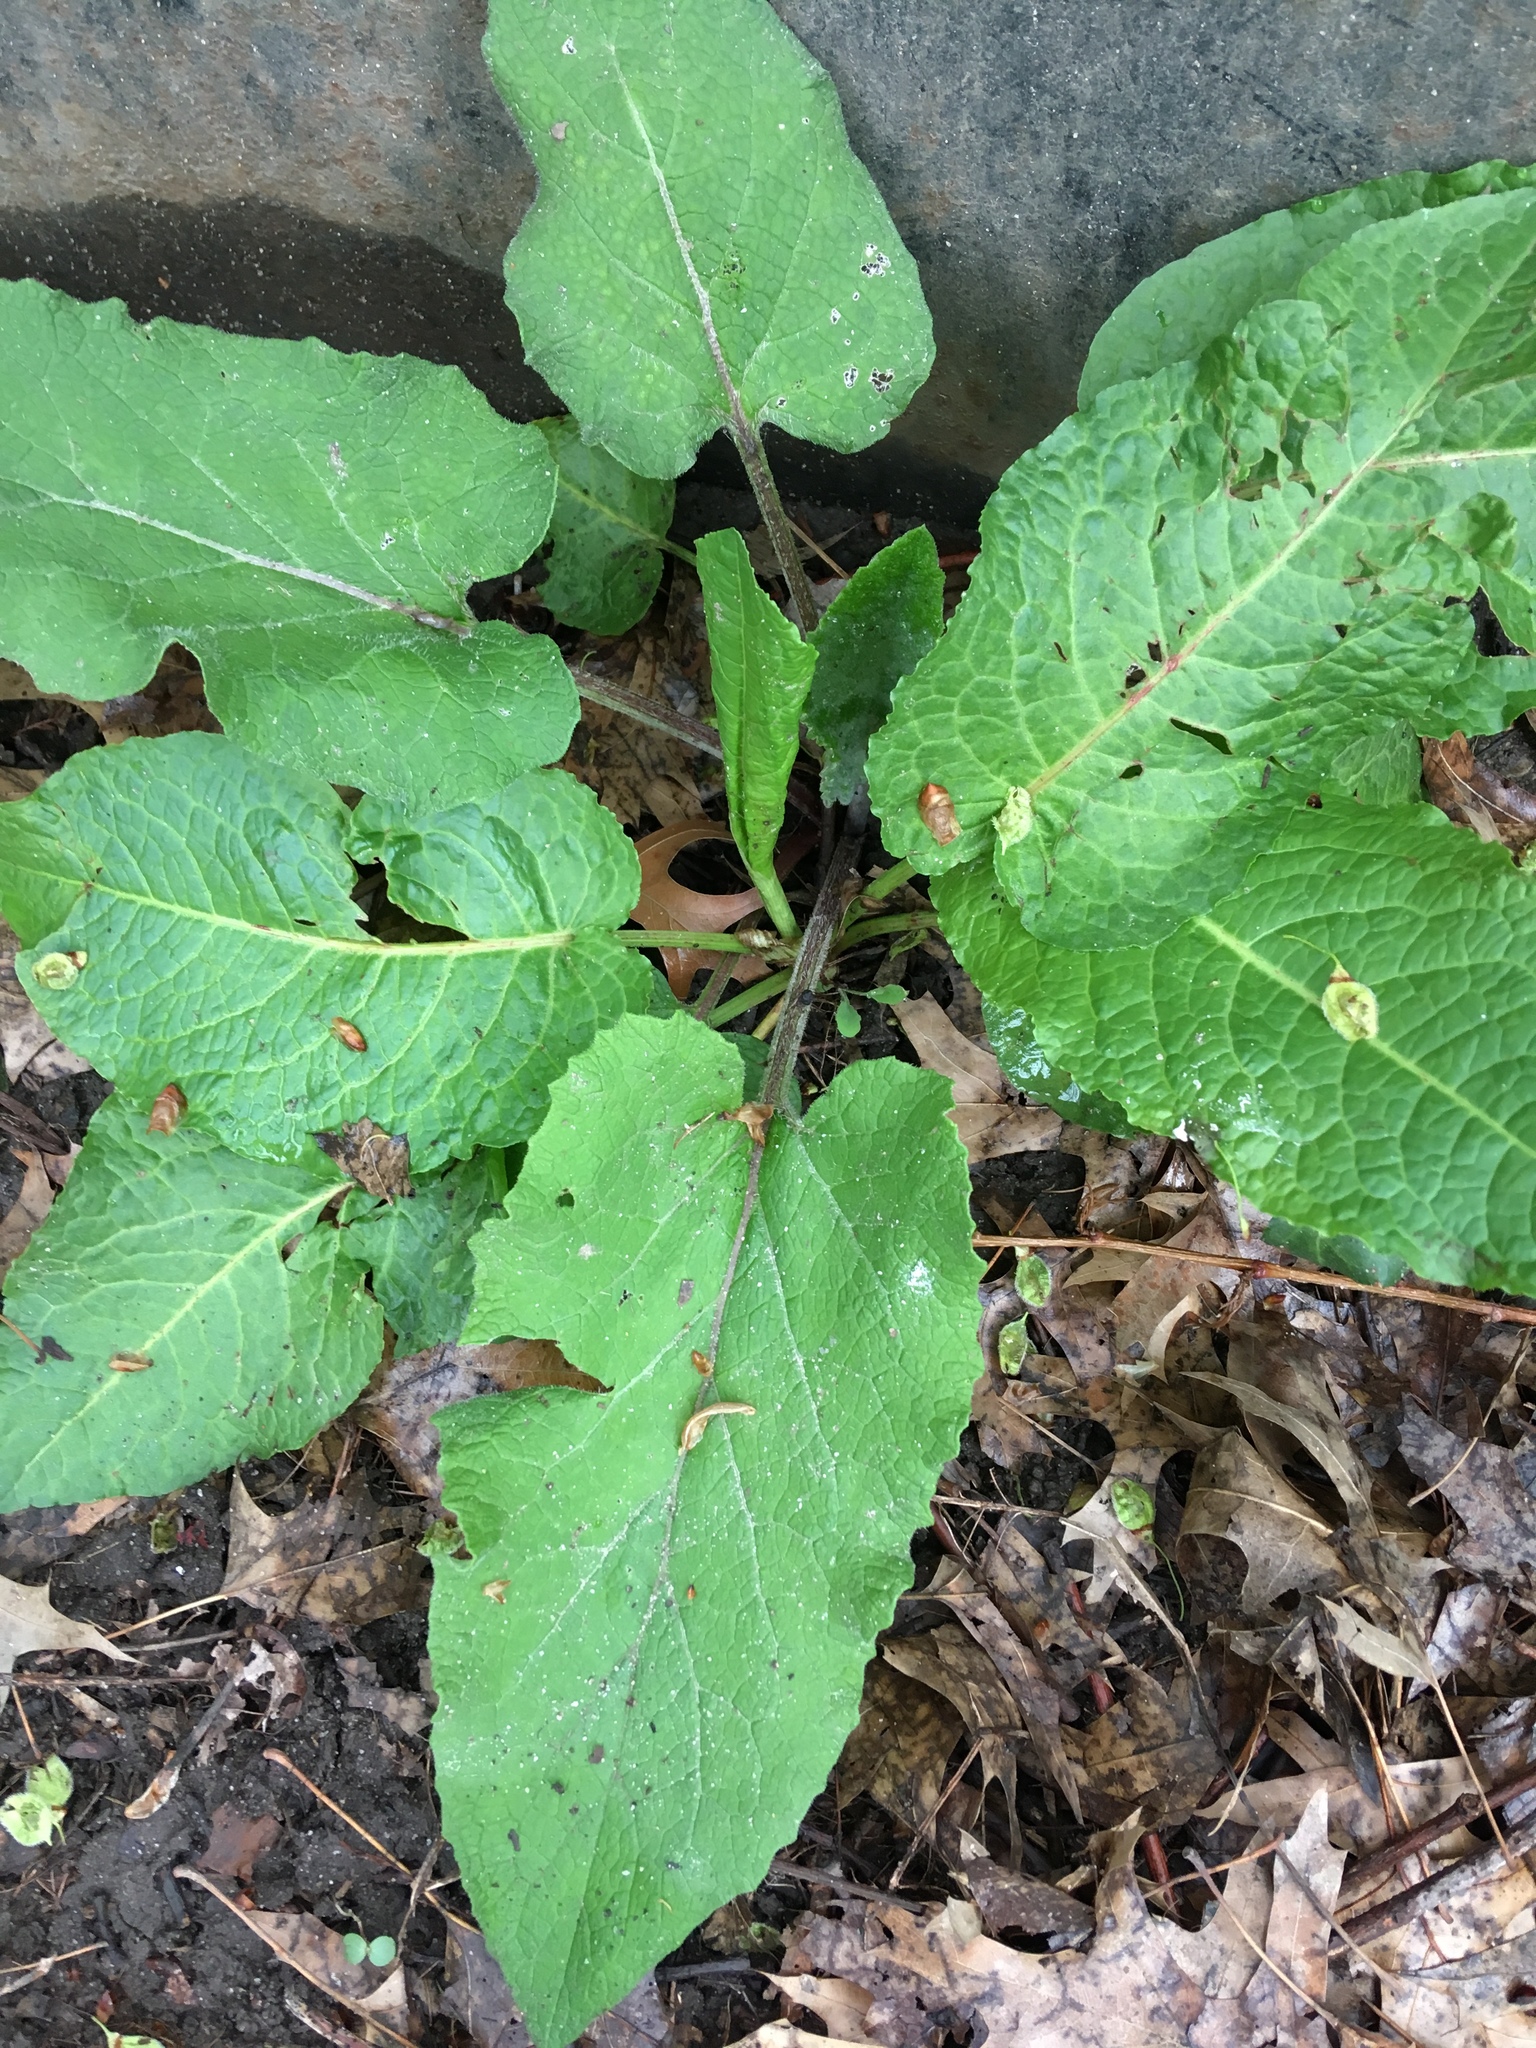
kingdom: Plantae
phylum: Tracheophyta
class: Magnoliopsida
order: Asterales
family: Asteraceae
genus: Arctium
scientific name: Arctium
